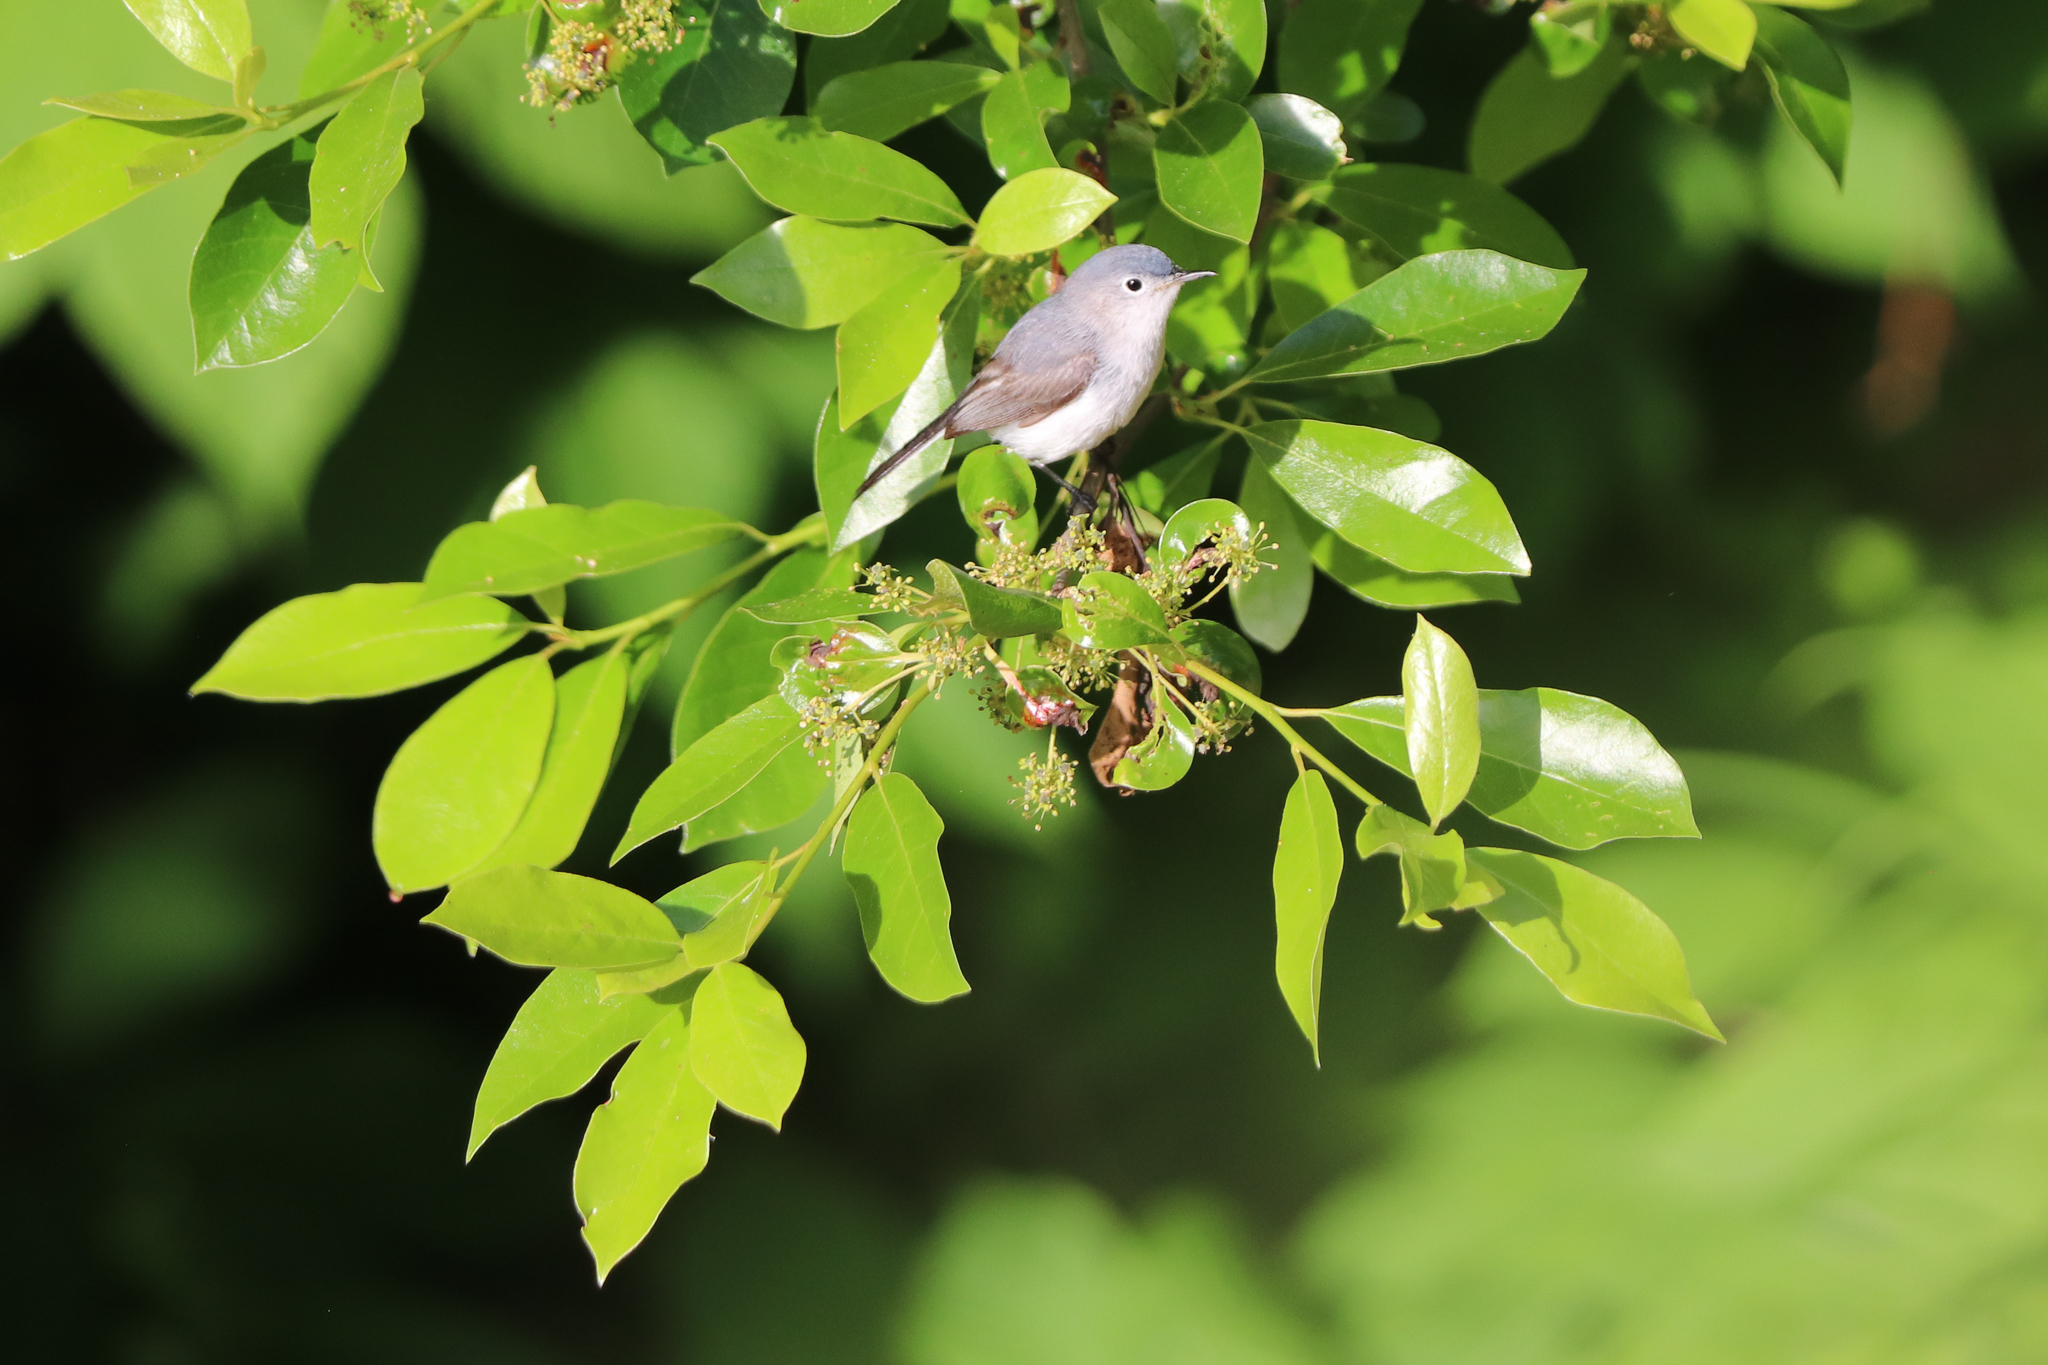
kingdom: Animalia
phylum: Chordata
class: Aves
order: Passeriformes
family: Polioptilidae
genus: Polioptila
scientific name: Polioptila caerulea
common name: Blue-gray gnatcatcher
